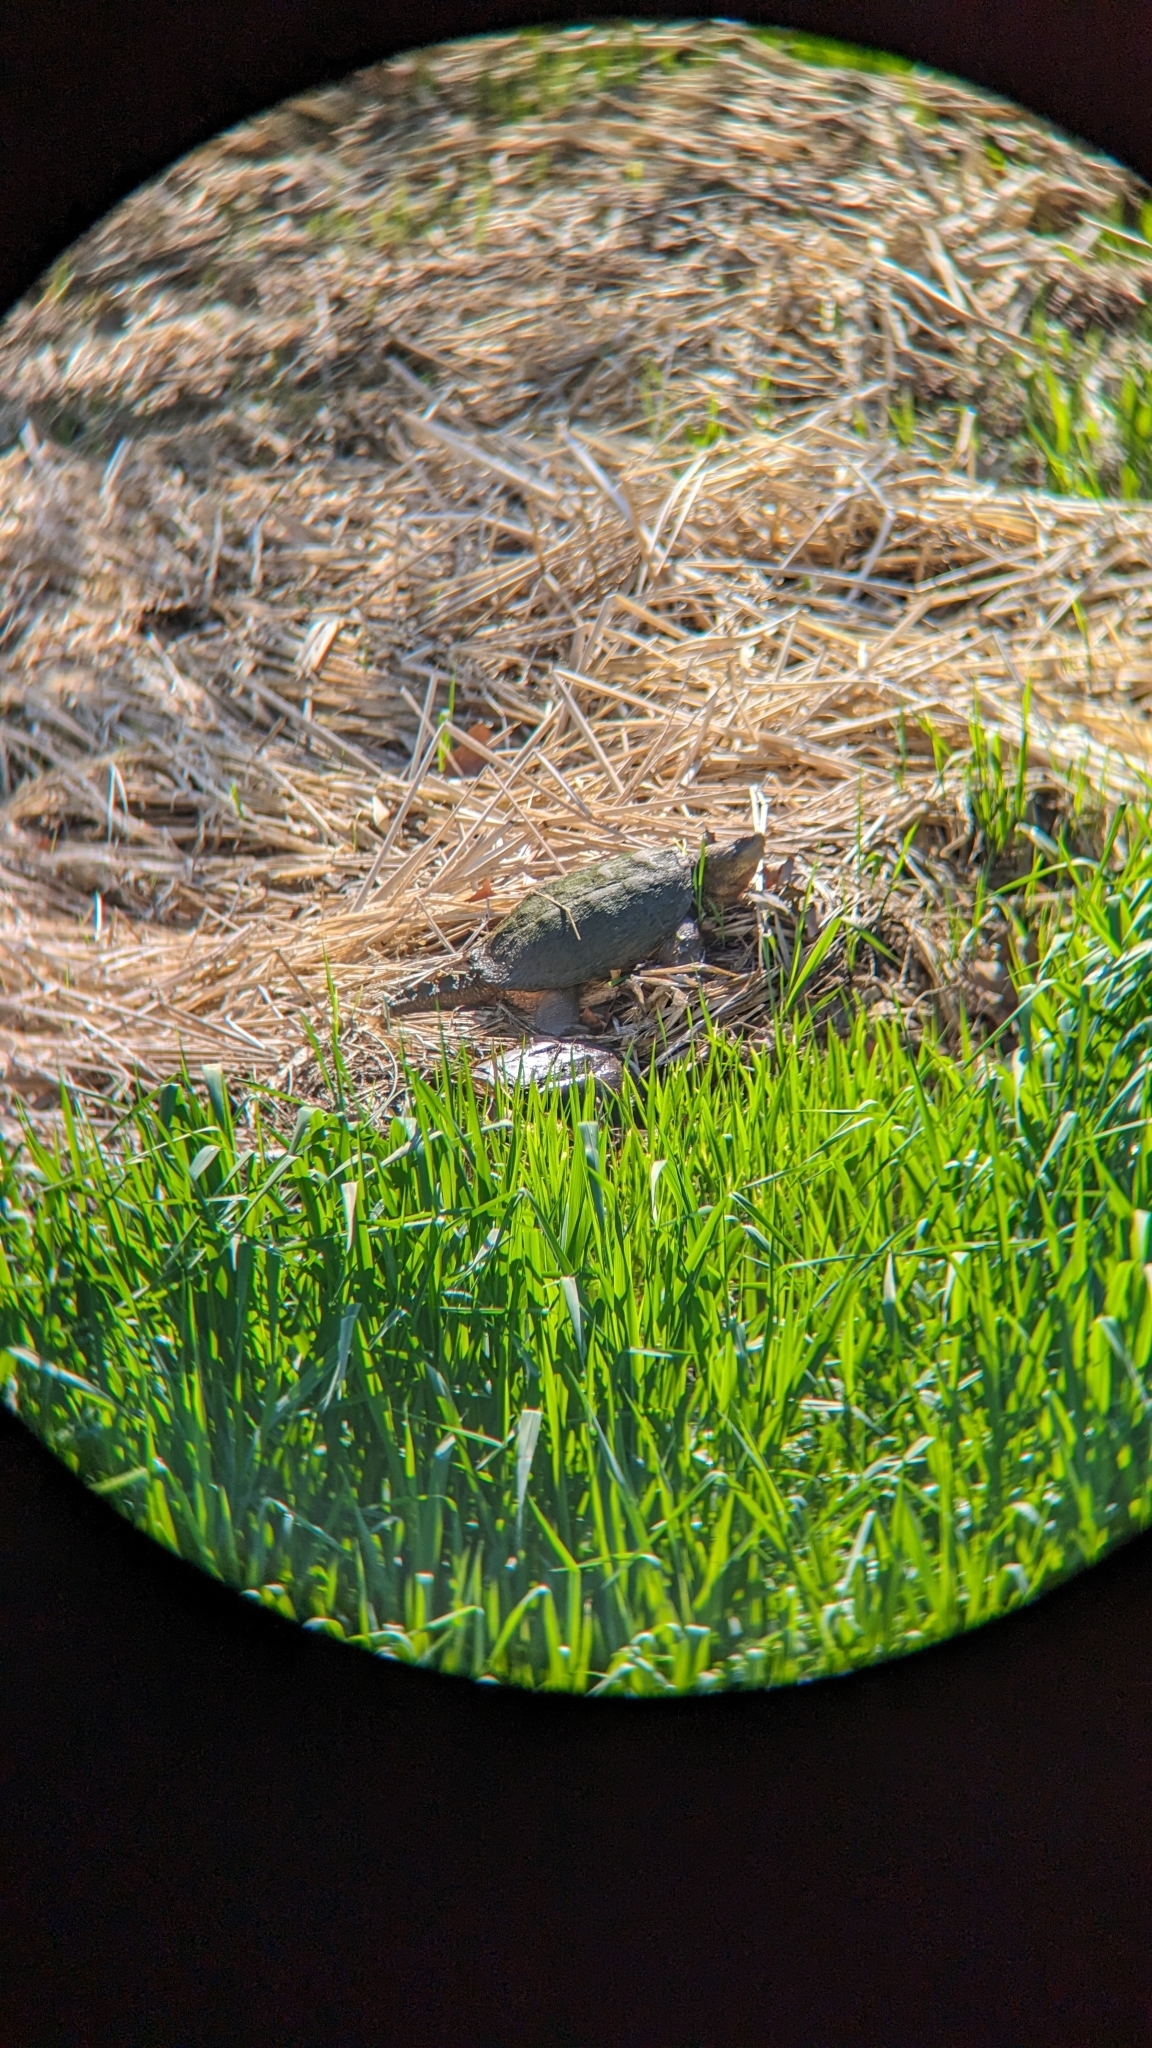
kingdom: Animalia
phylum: Chordata
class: Testudines
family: Chelydridae
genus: Chelydra
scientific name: Chelydra serpentina
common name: Common snapping turtle
